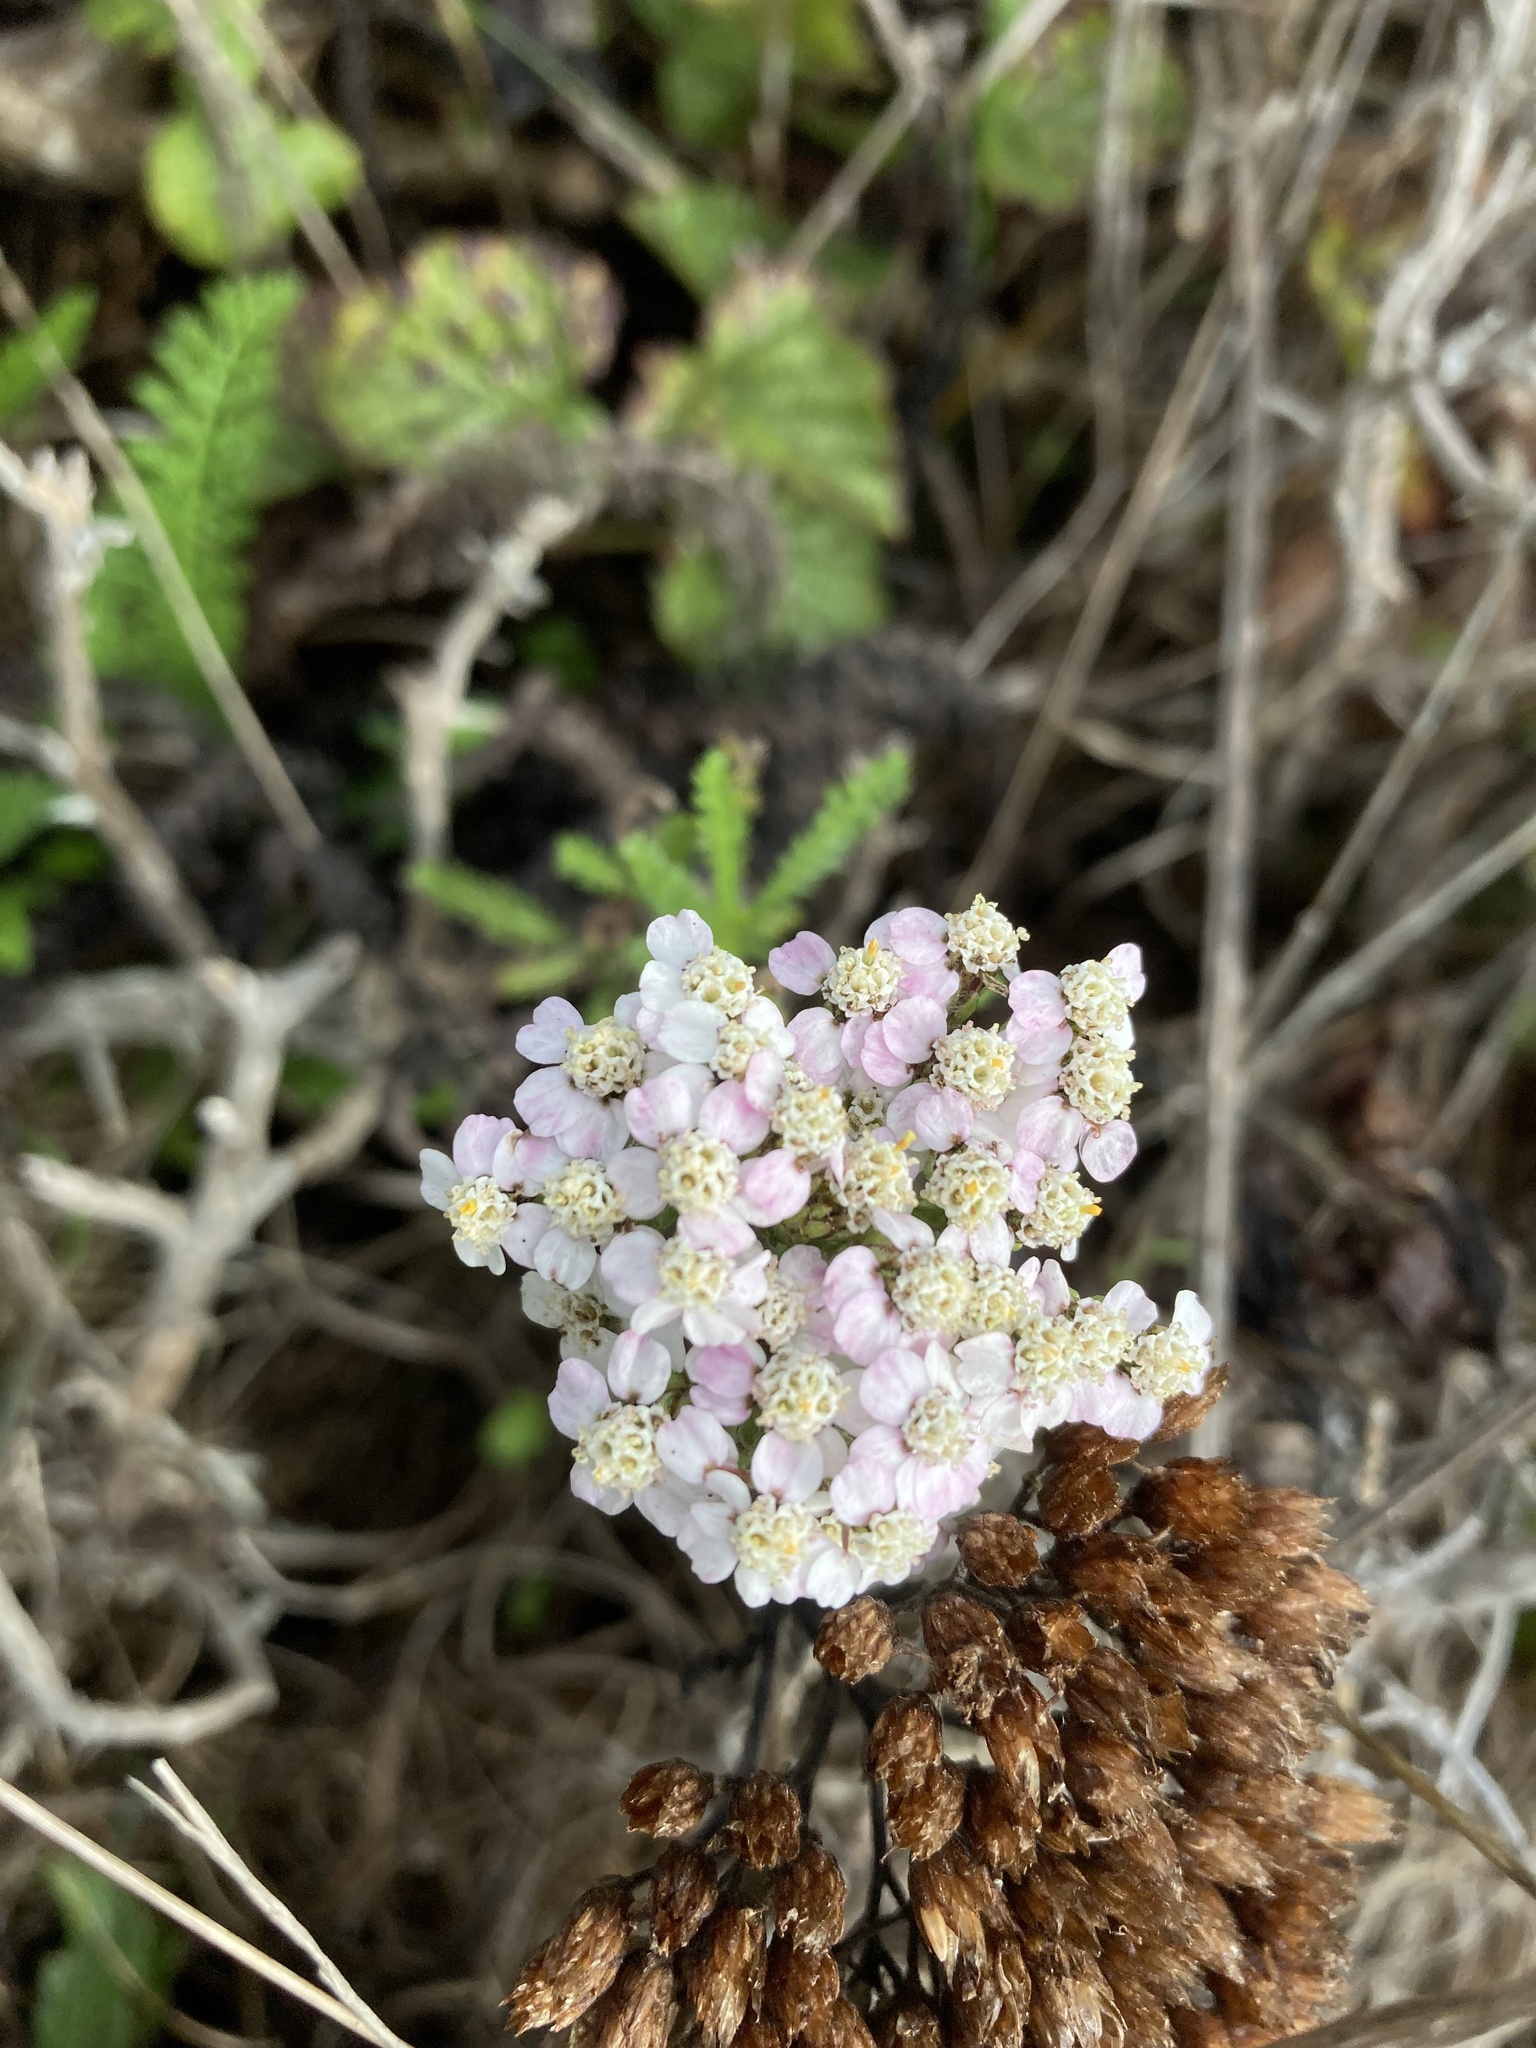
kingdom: Plantae
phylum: Tracheophyta
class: Magnoliopsida
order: Asterales
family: Asteraceae
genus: Achillea
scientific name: Achillea millefolium
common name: Yarrow
